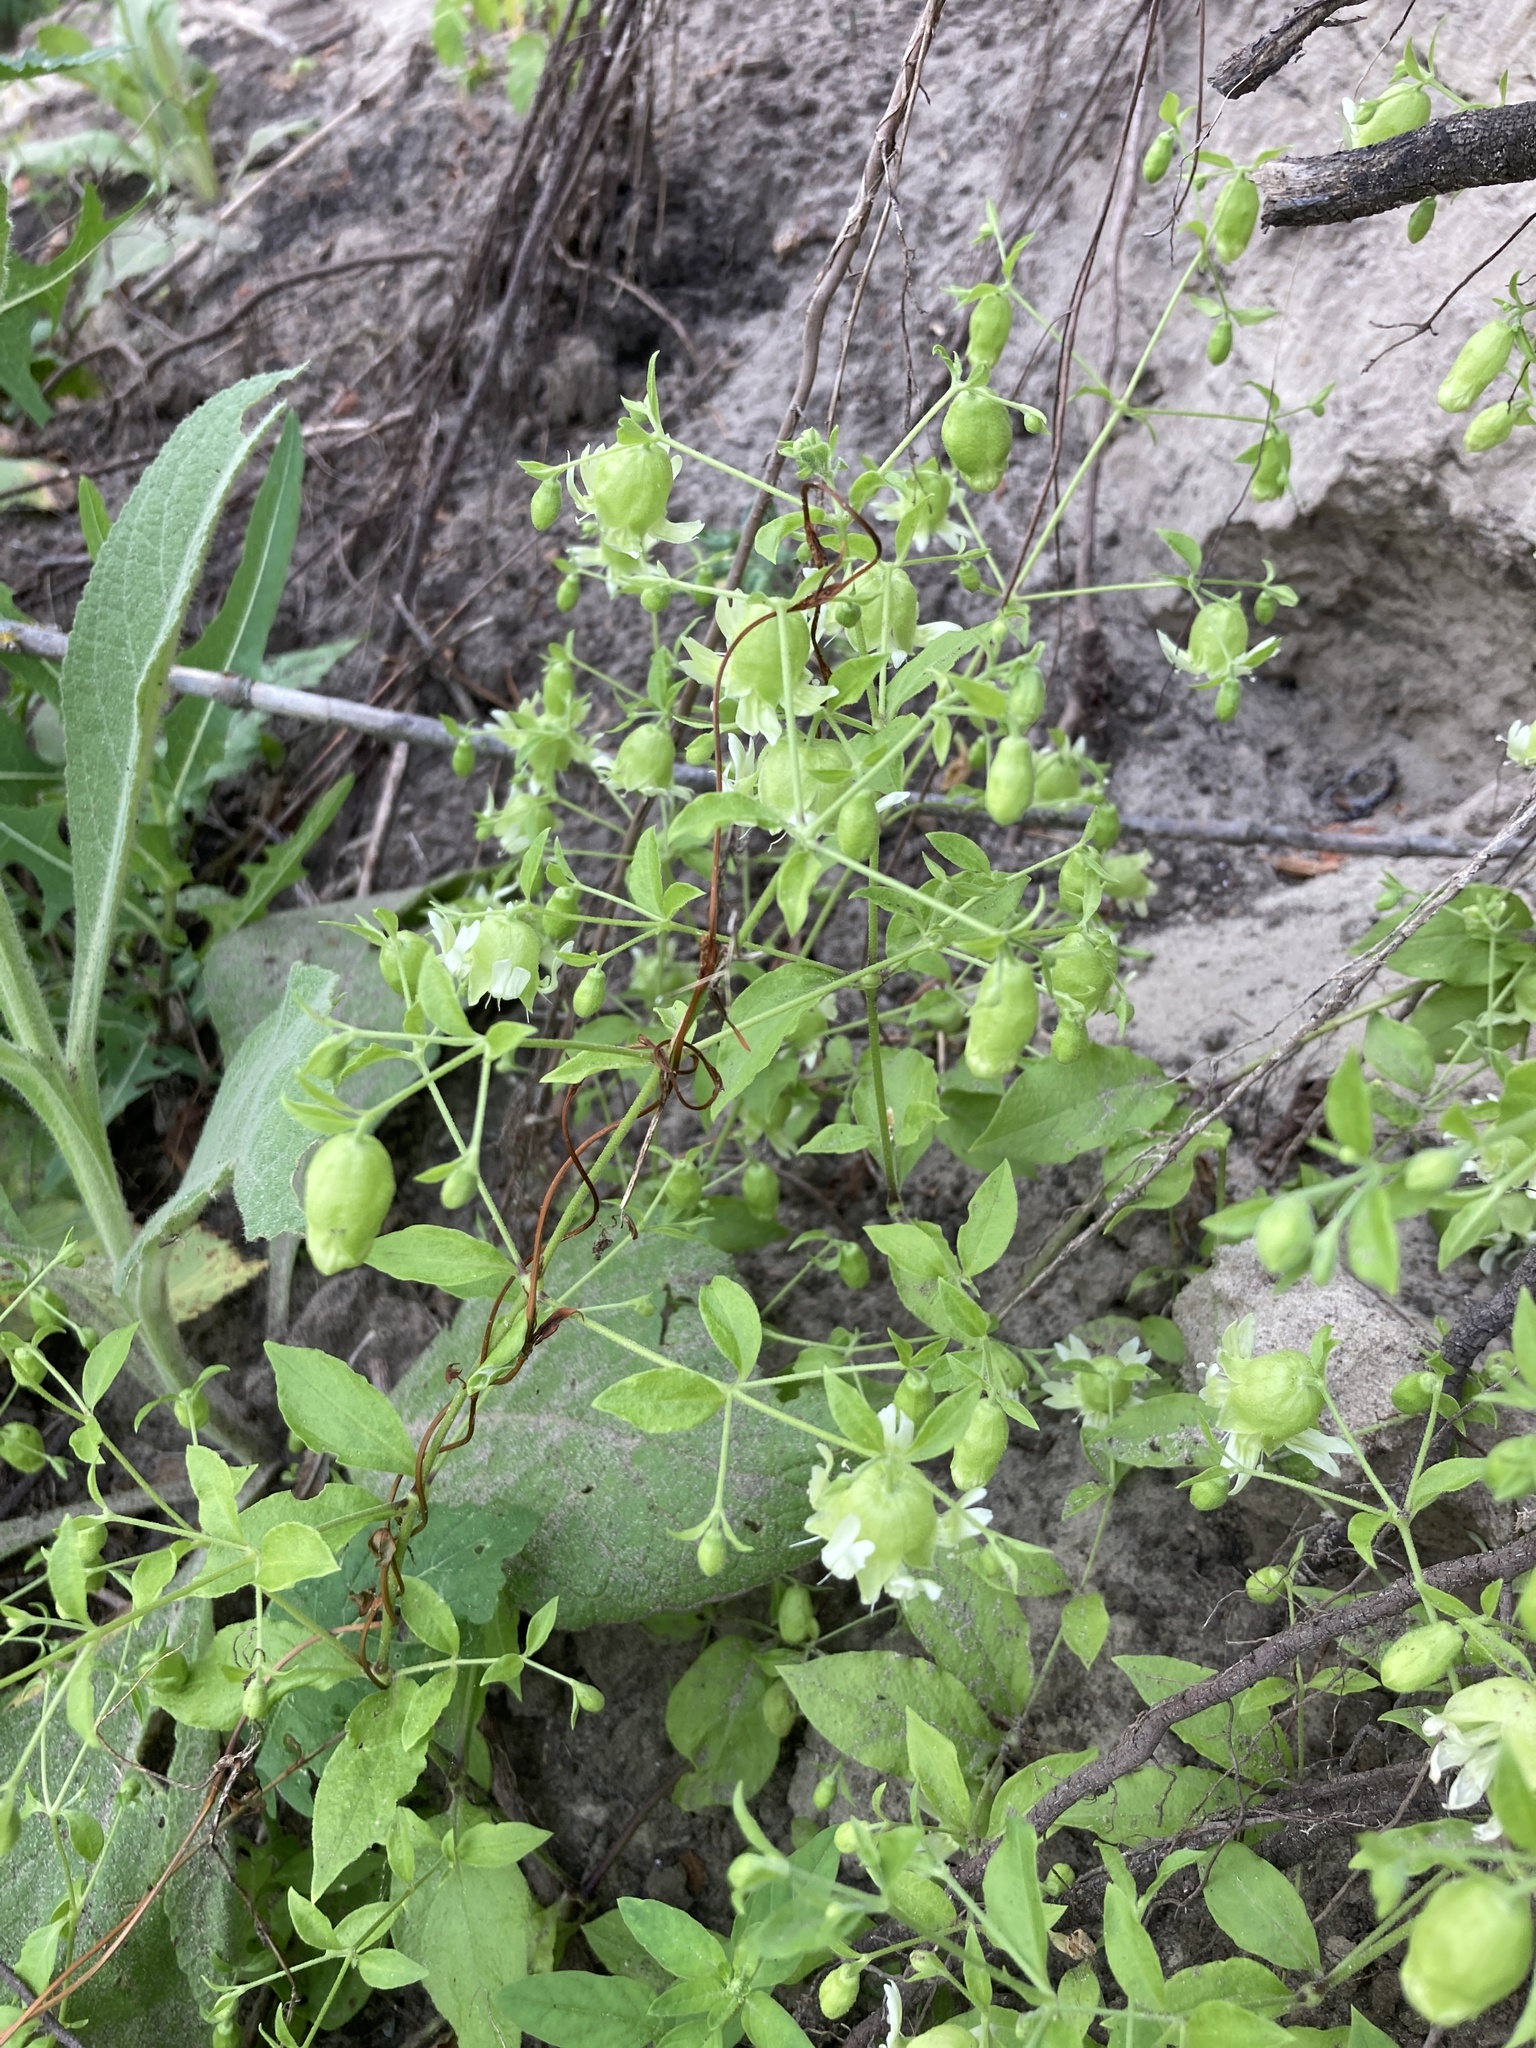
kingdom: Plantae
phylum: Tracheophyta
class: Magnoliopsida
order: Caryophyllales
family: Caryophyllaceae
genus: Silene
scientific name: Silene baccifera
